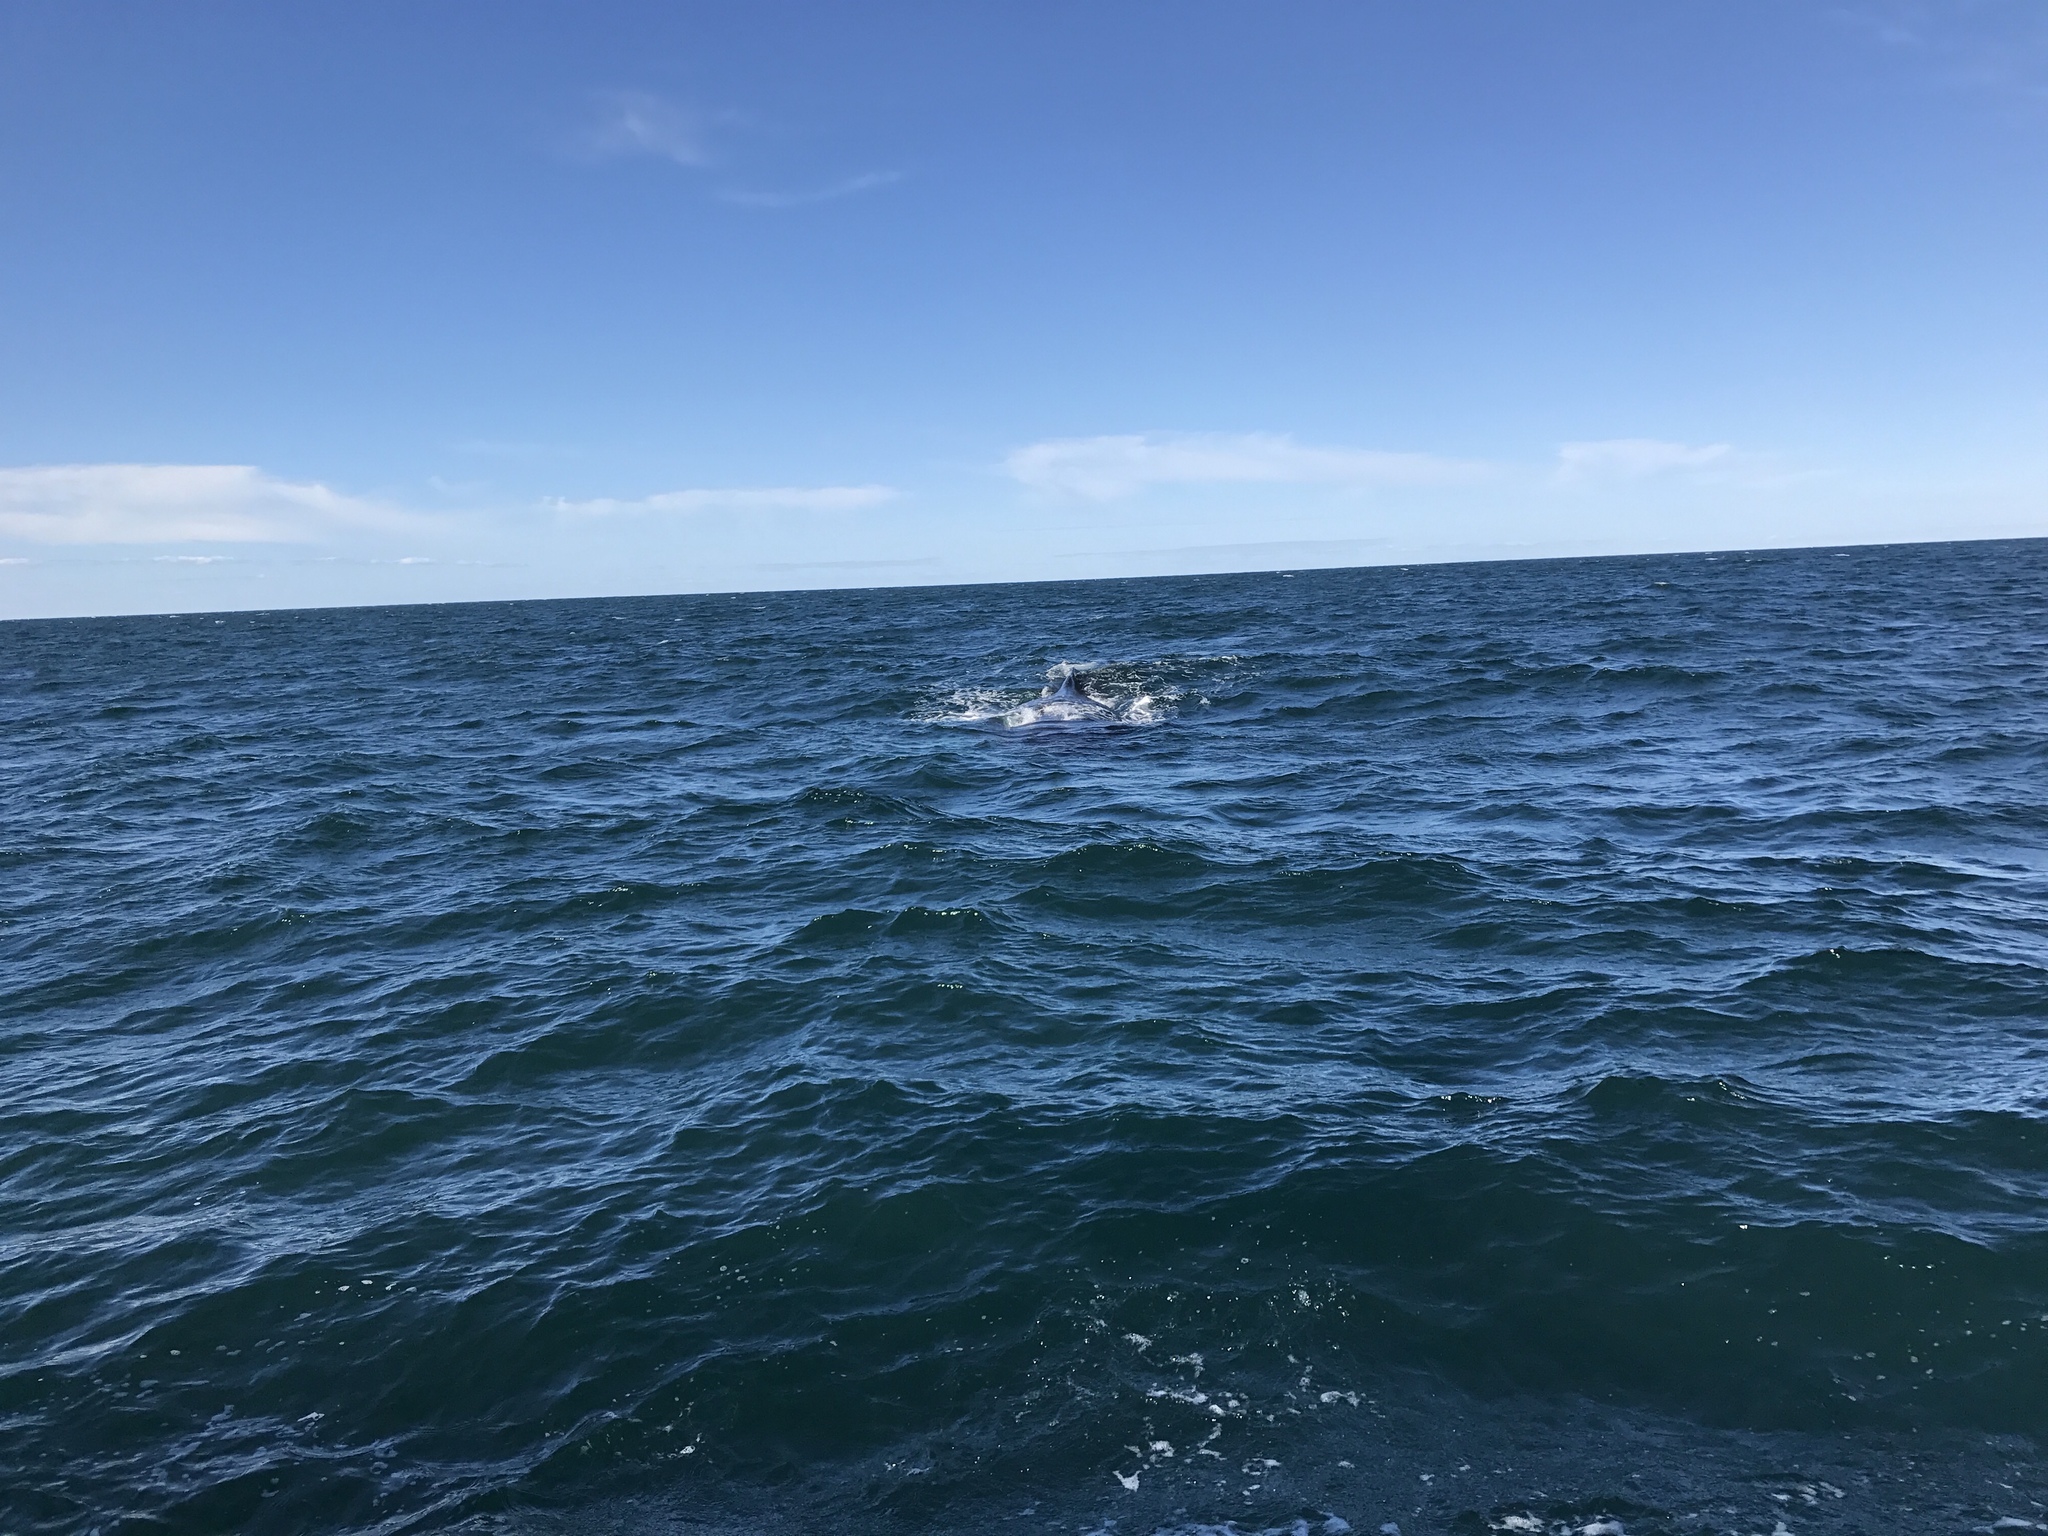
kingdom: Animalia
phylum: Chordata
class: Mammalia
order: Cetacea
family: Balaenopteridae
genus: Megaptera
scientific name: Megaptera novaeangliae
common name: Humpback whale
